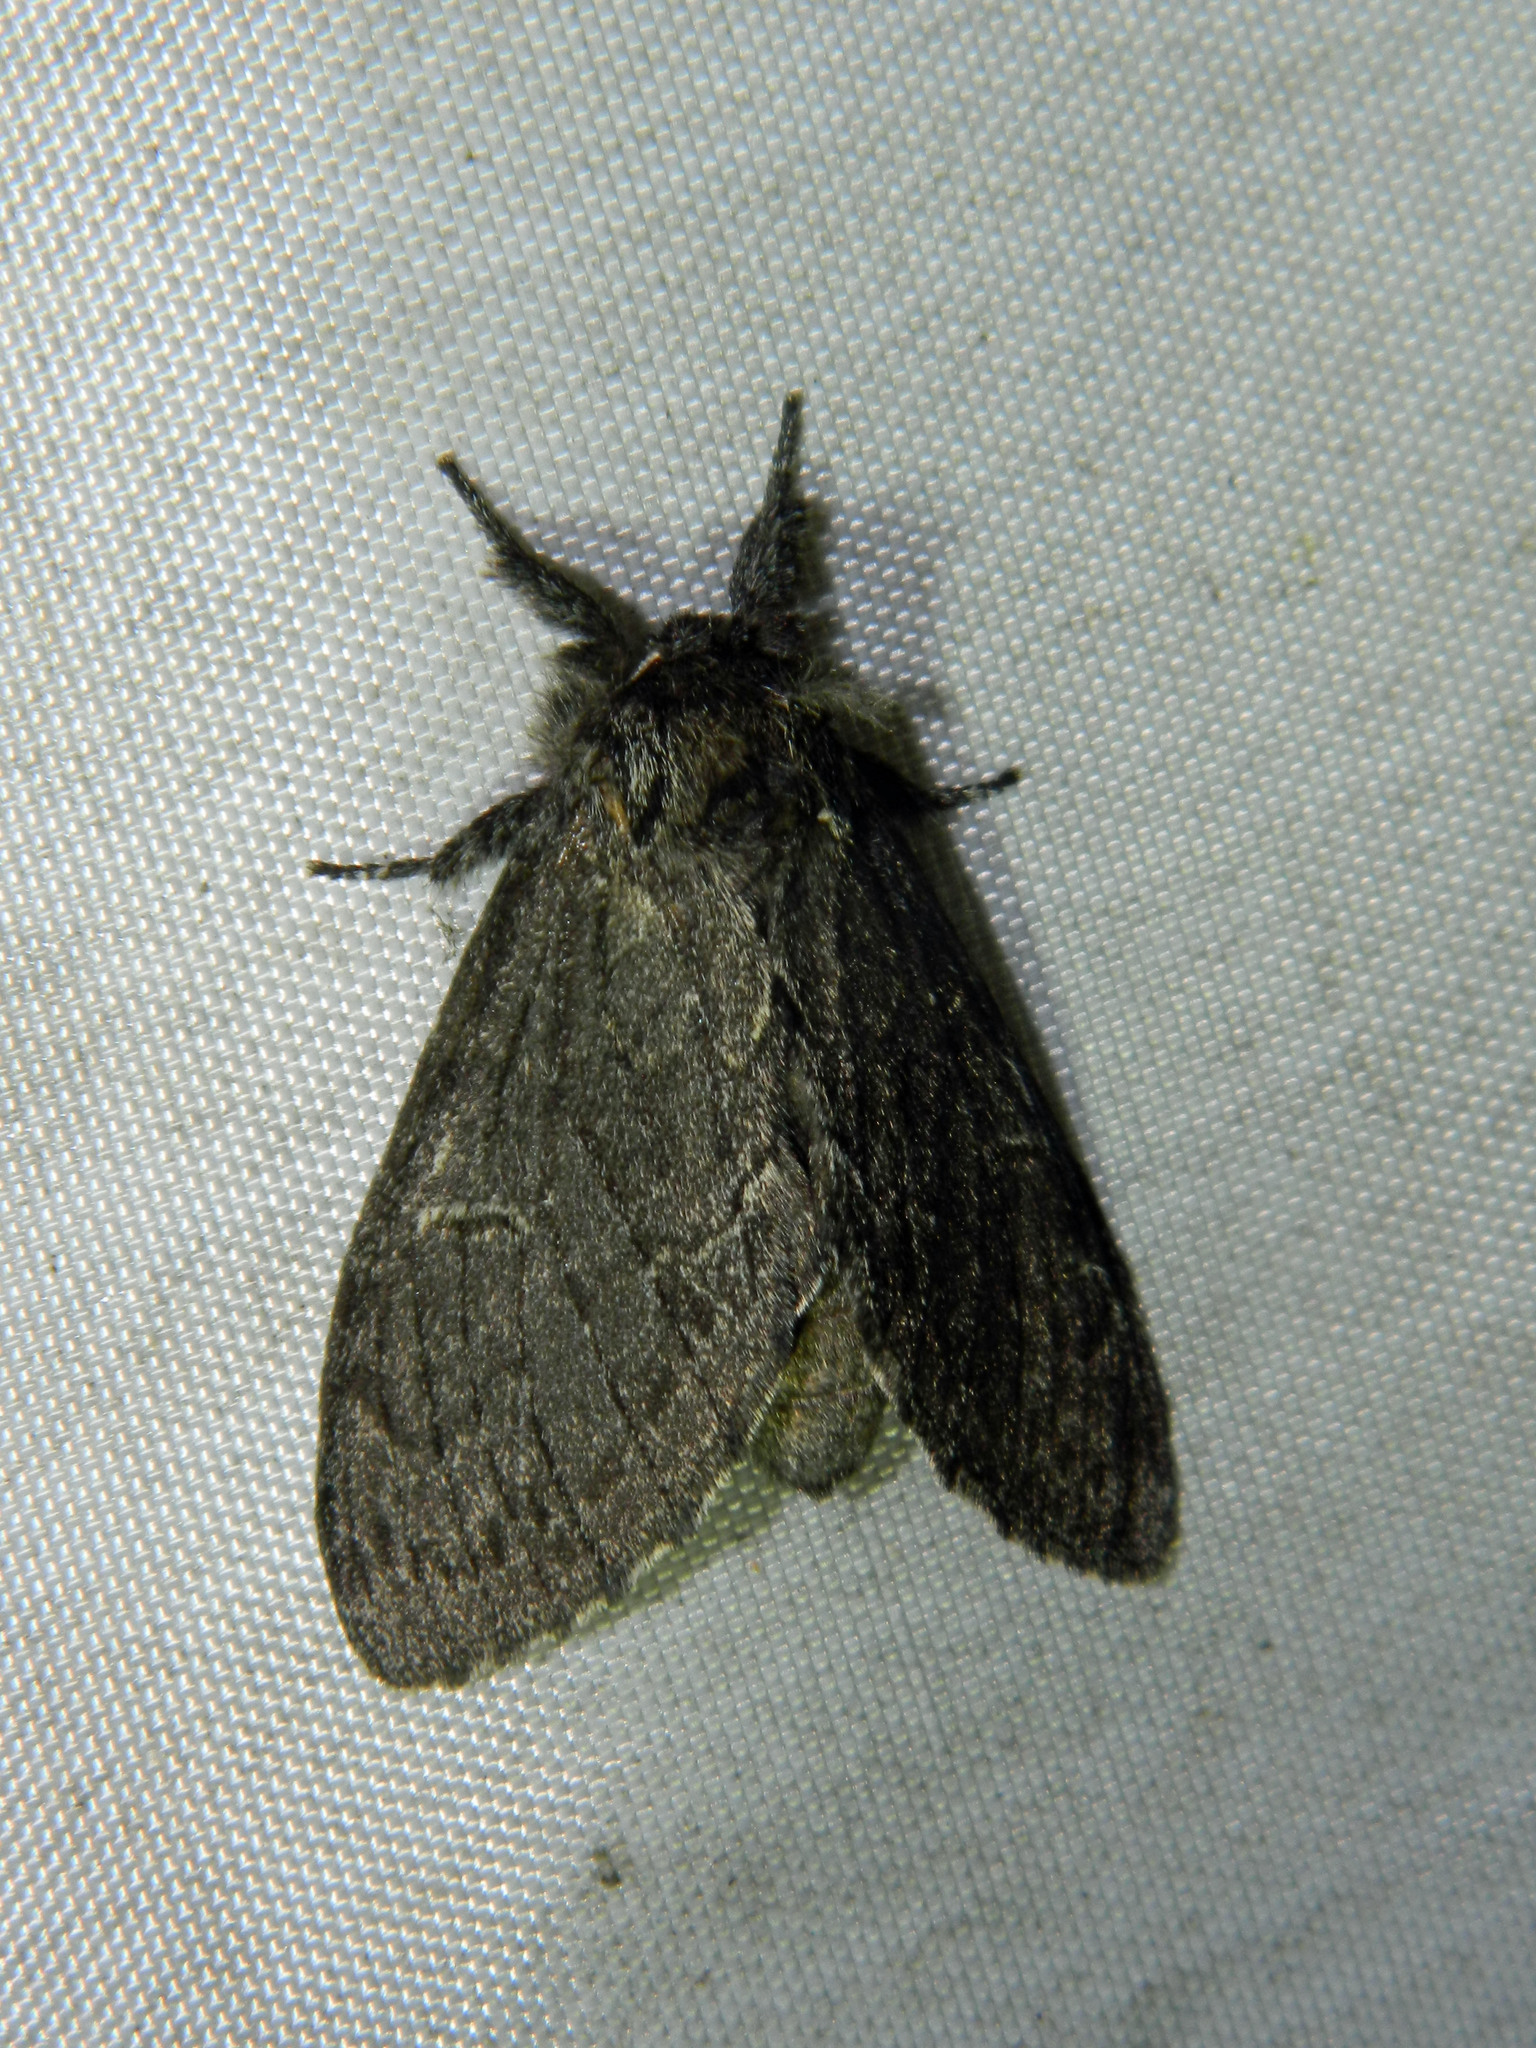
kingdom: Animalia
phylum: Arthropoda
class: Insecta
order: Lepidoptera
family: Notodontidae
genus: Notodonta
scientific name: Notodonta torva
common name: Large dark prominent
